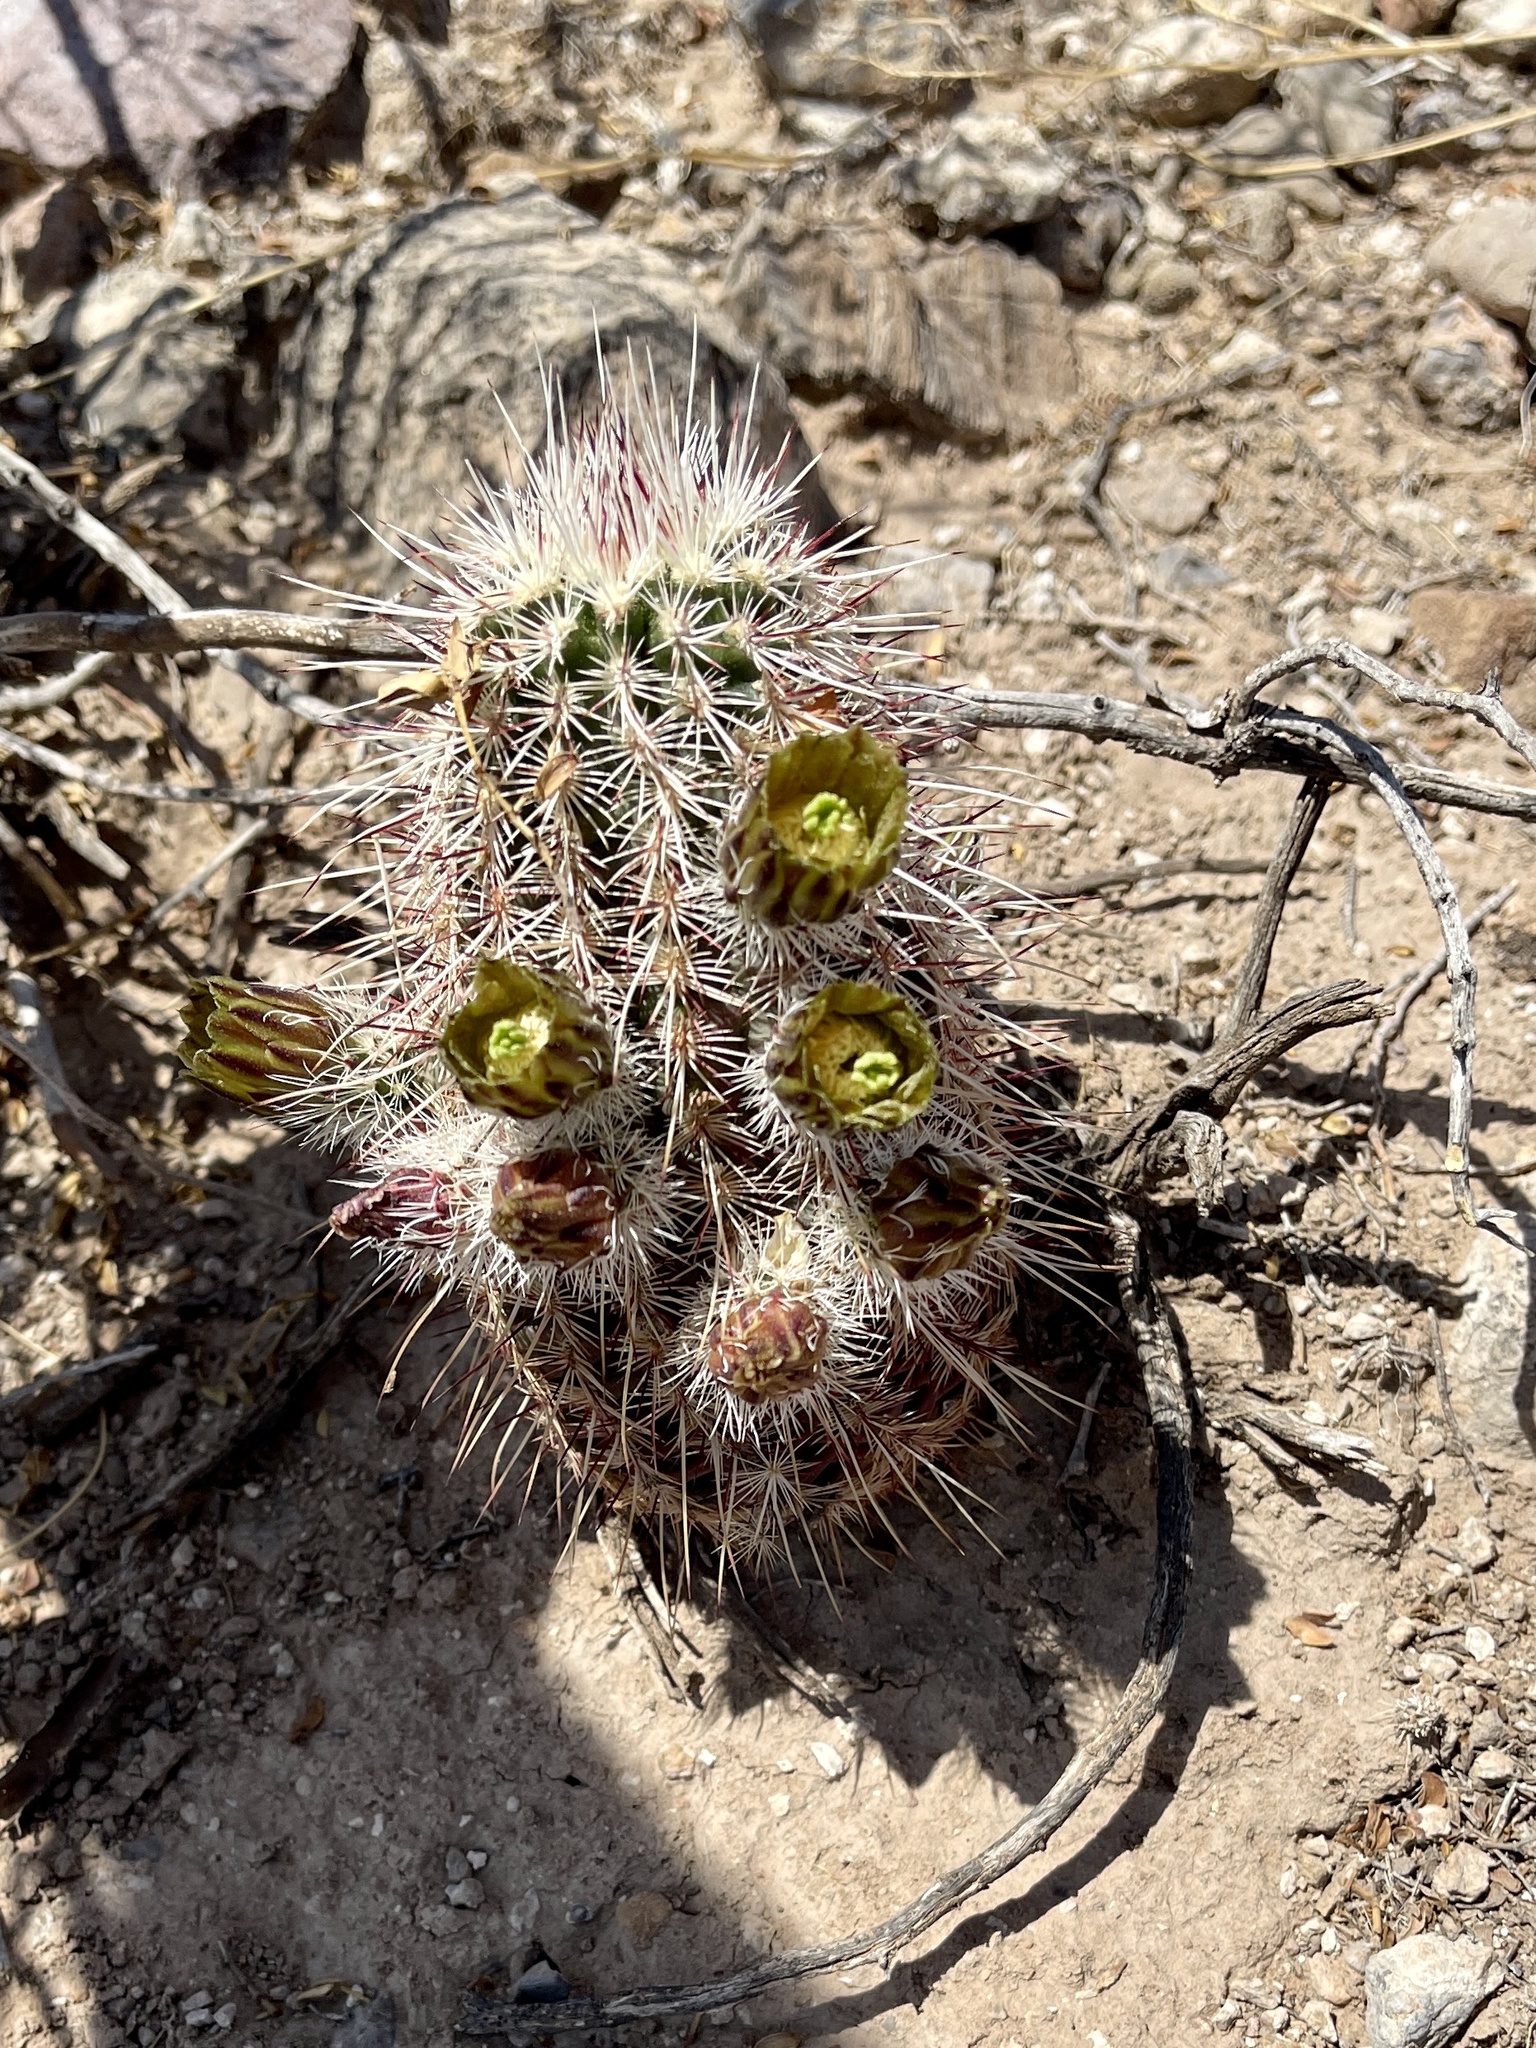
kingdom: Plantae
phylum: Tracheophyta
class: Magnoliopsida
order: Caryophyllales
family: Cactaceae
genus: Echinocereus
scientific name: Echinocereus viridiflorus
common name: Nylon hedgehog cactus
